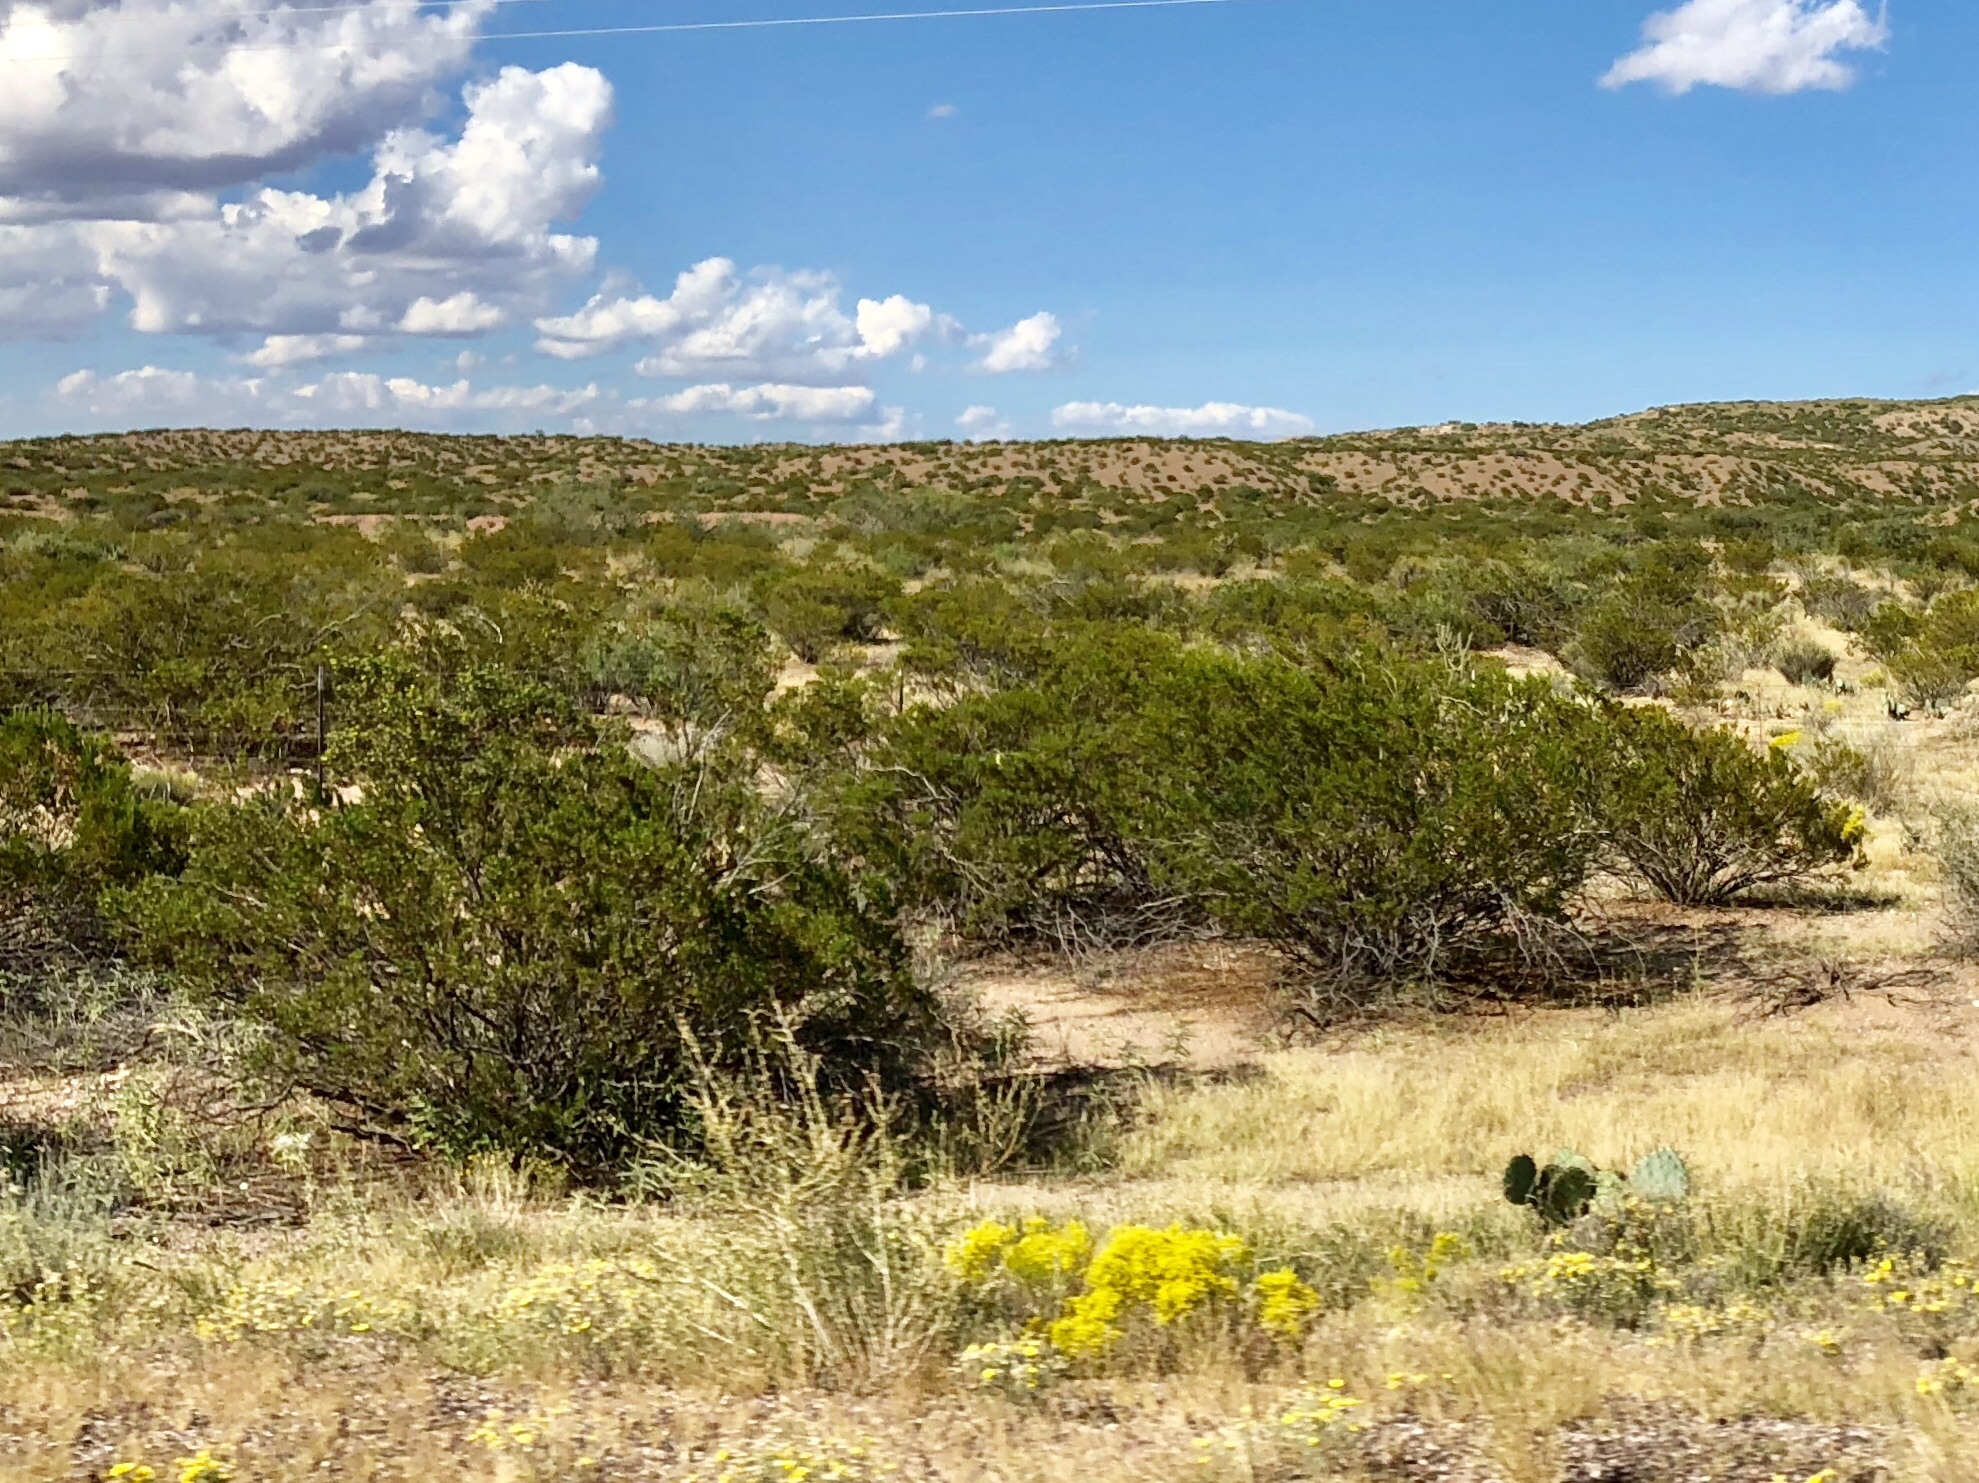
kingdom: Plantae
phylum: Tracheophyta
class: Magnoliopsida
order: Zygophyllales
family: Zygophyllaceae
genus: Larrea
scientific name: Larrea tridentata
